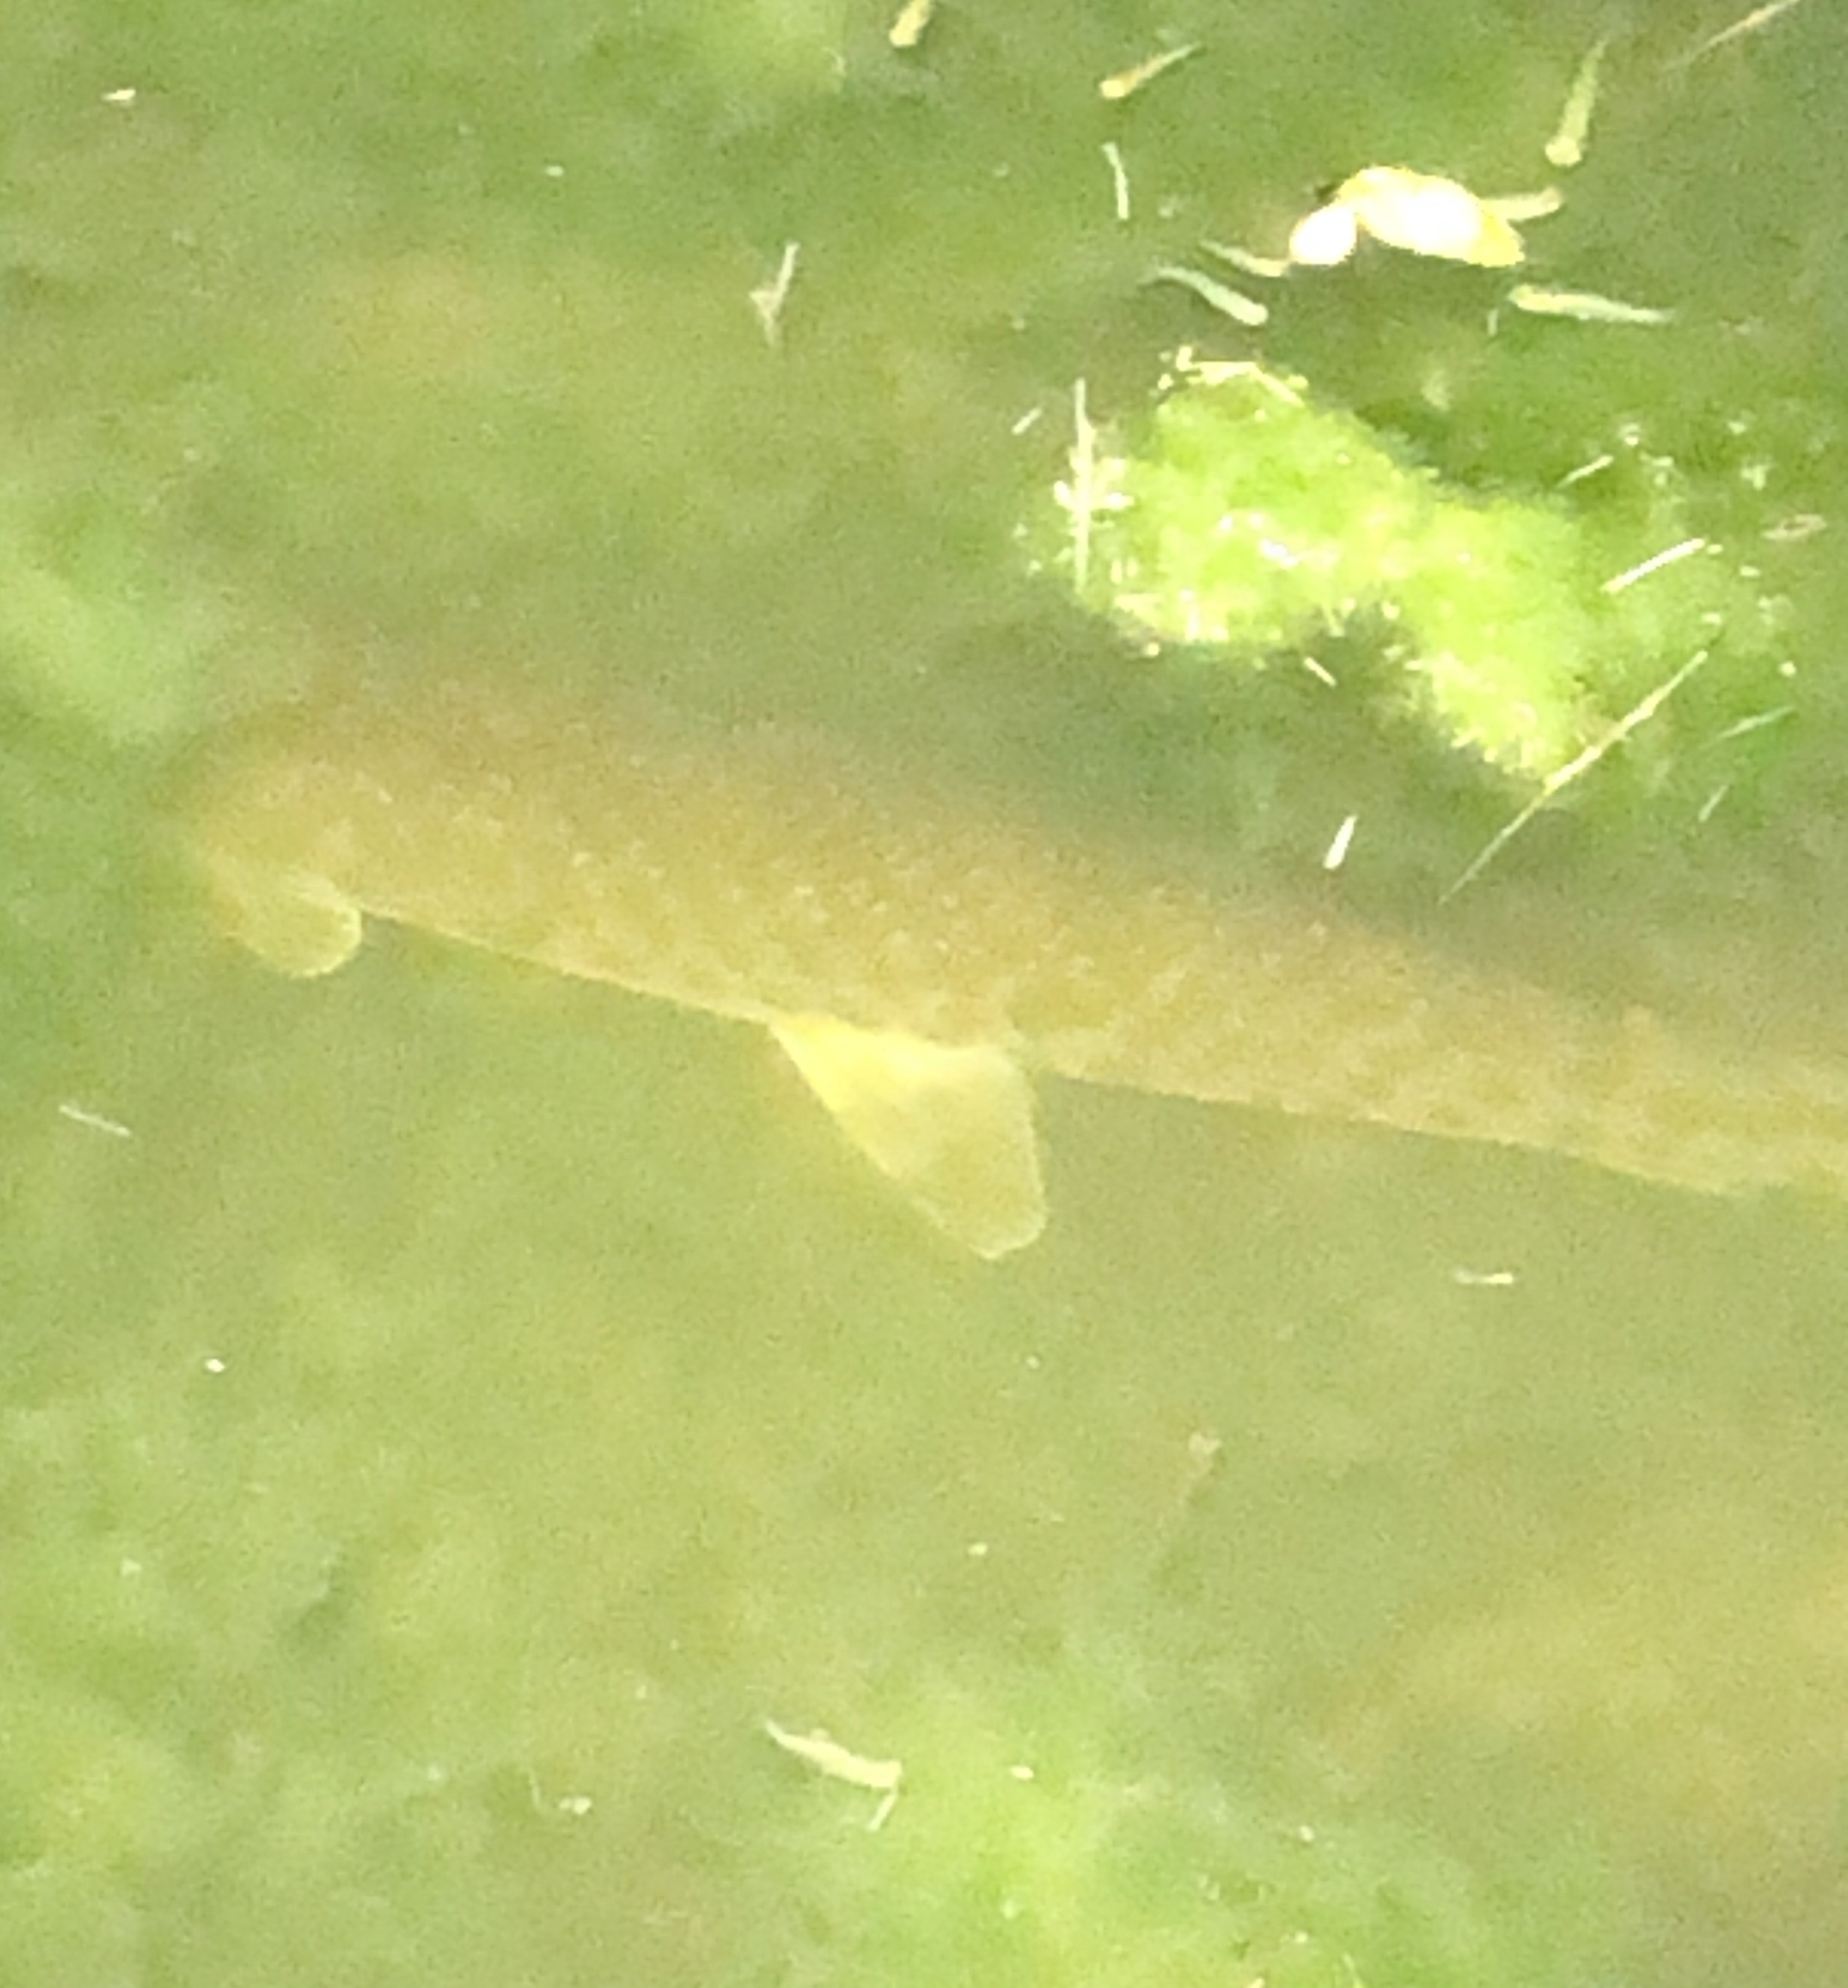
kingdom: Animalia
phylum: Chordata
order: Lepisosteiformes
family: Lepisosteidae
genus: Lepisosteus
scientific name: Lepisosteus oculatus
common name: Spotted gar
